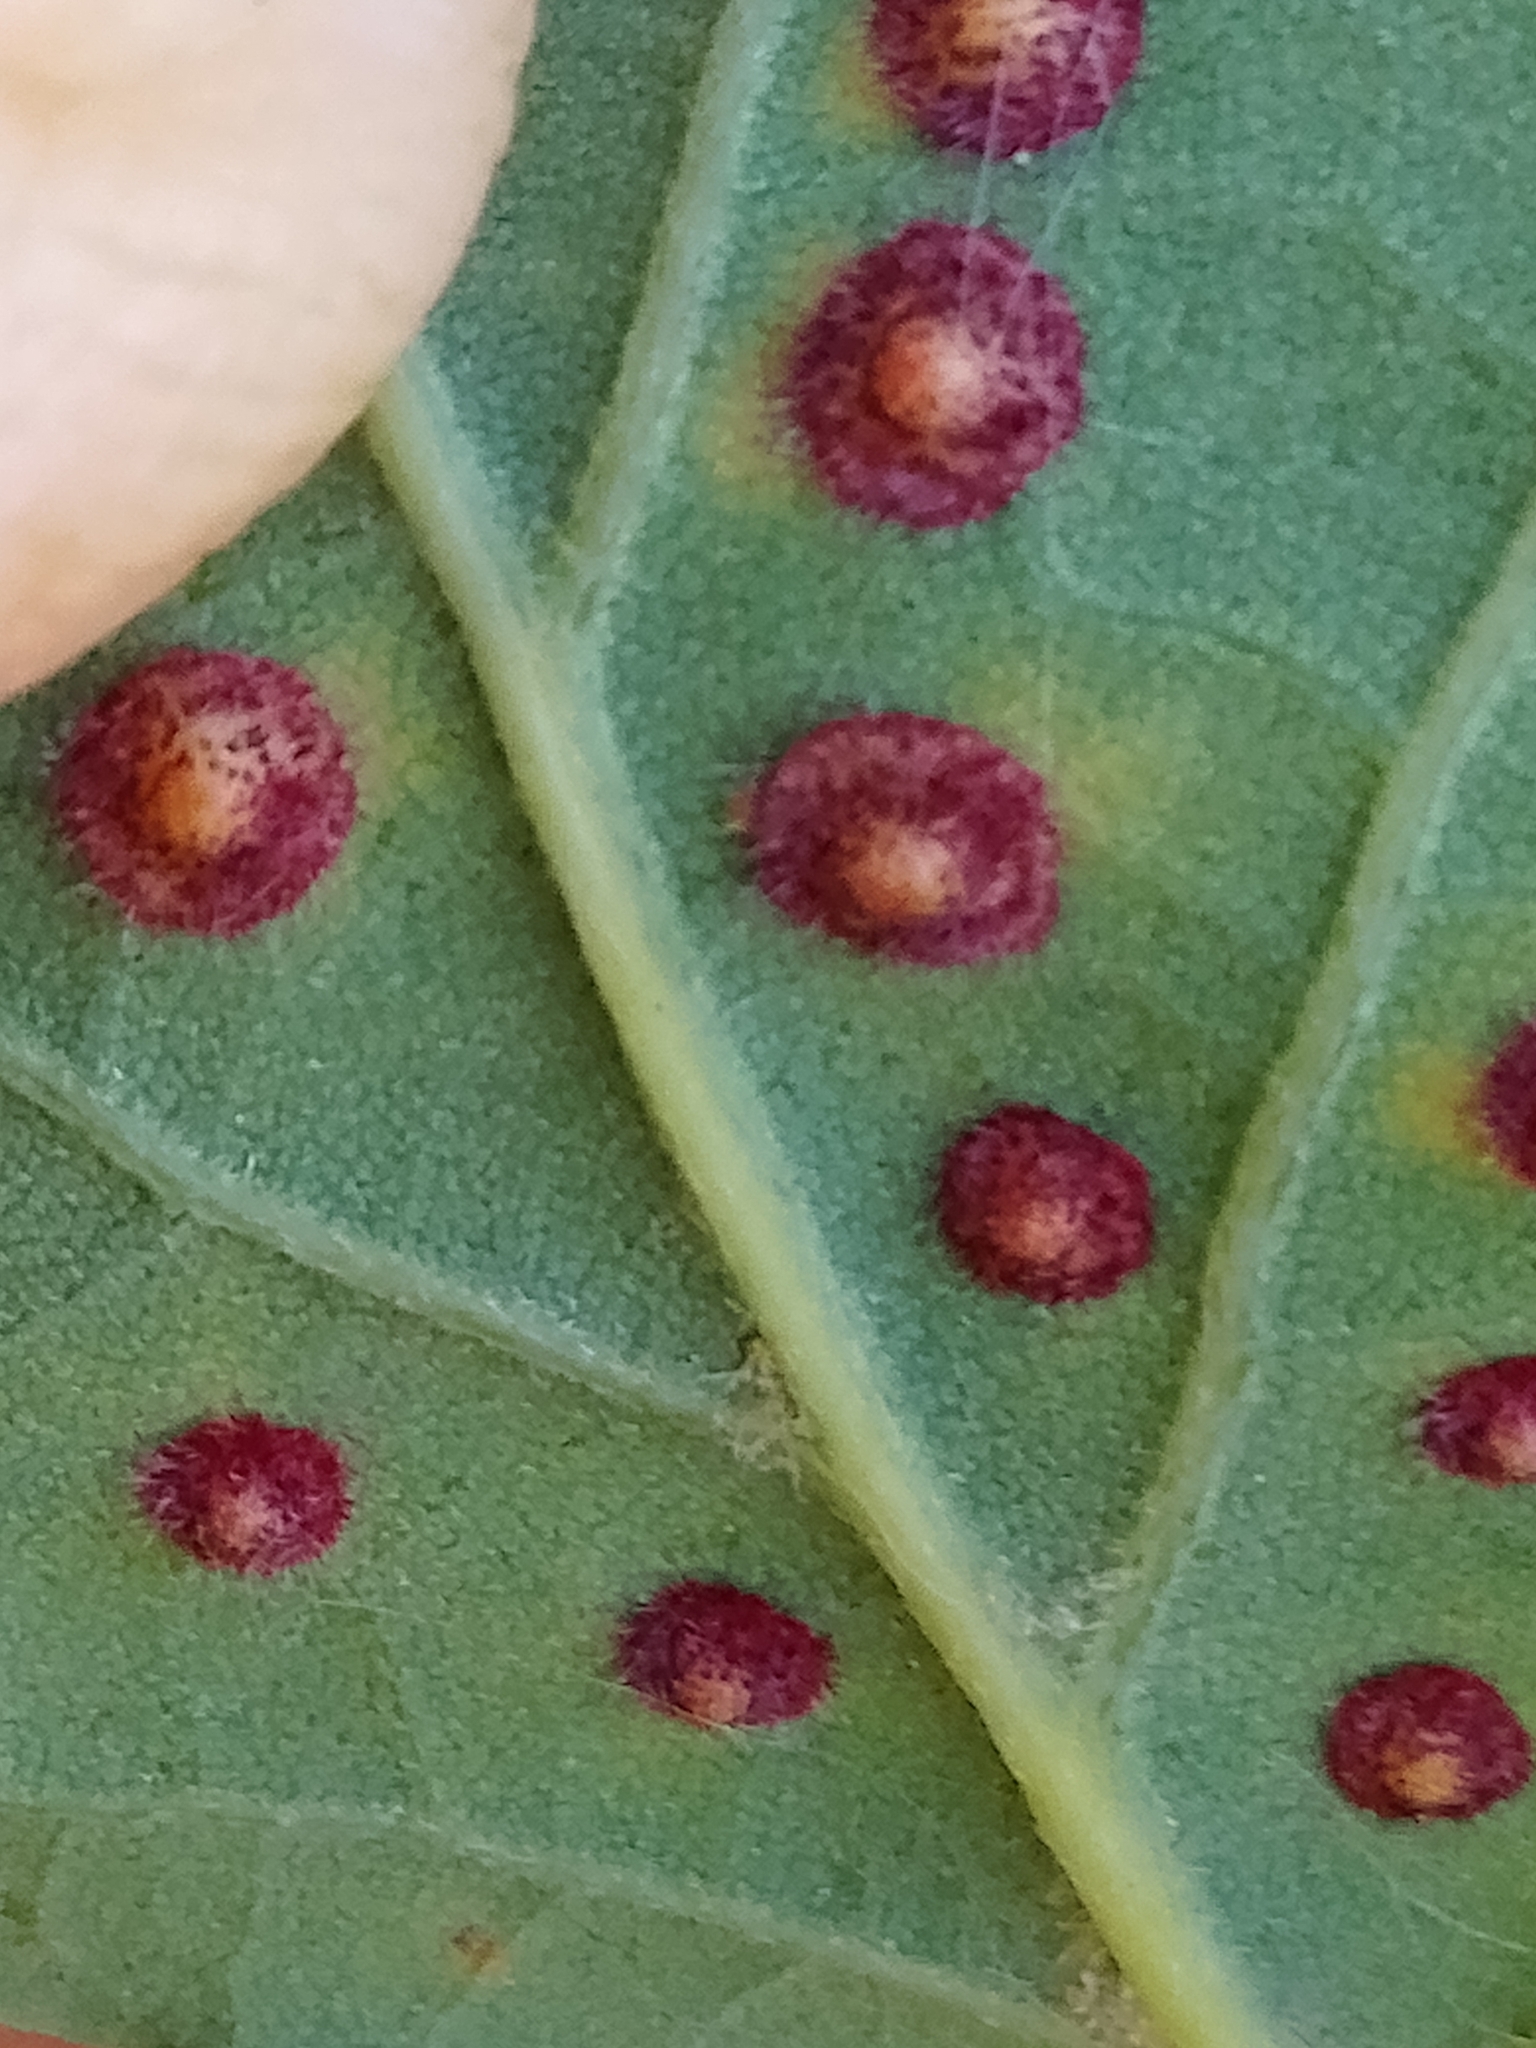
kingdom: Animalia
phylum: Arthropoda
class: Insecta
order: Hymenoptera
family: Cynipidae
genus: Neuroterus
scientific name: Neuroterus quercusbaccarum
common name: Common spangle gall
